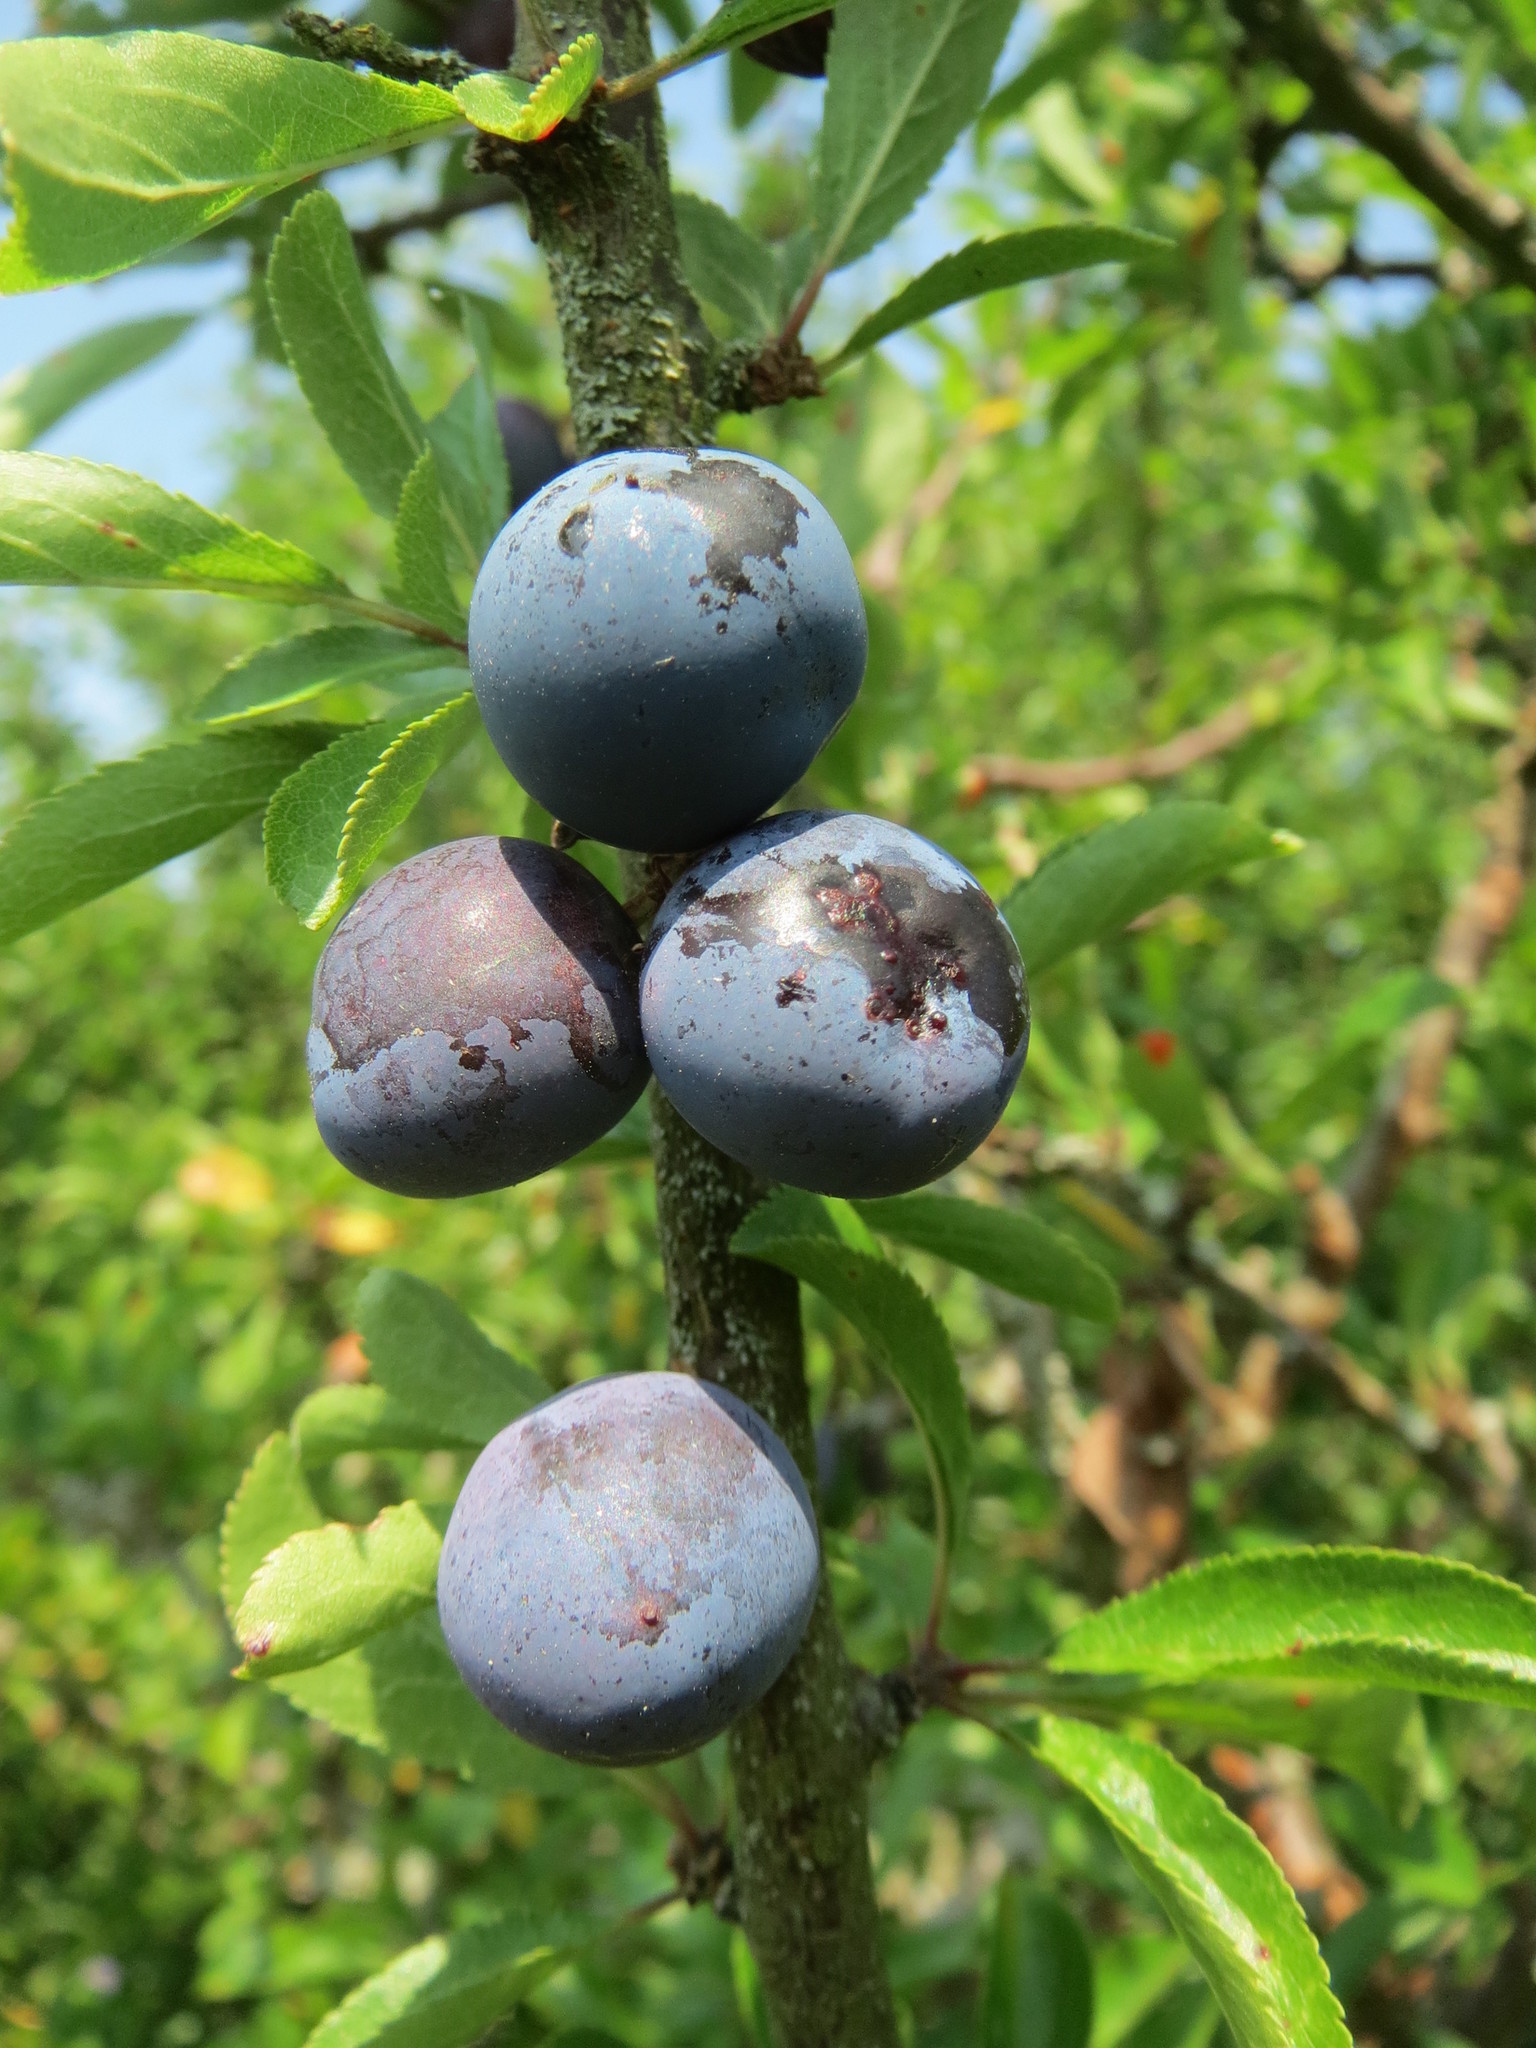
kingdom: Plantae
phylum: Tracheophyta
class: Magnoliopsida
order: Rosales
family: Rosaceae
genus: Prunus
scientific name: Prunus spinosa
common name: Blackthorn
